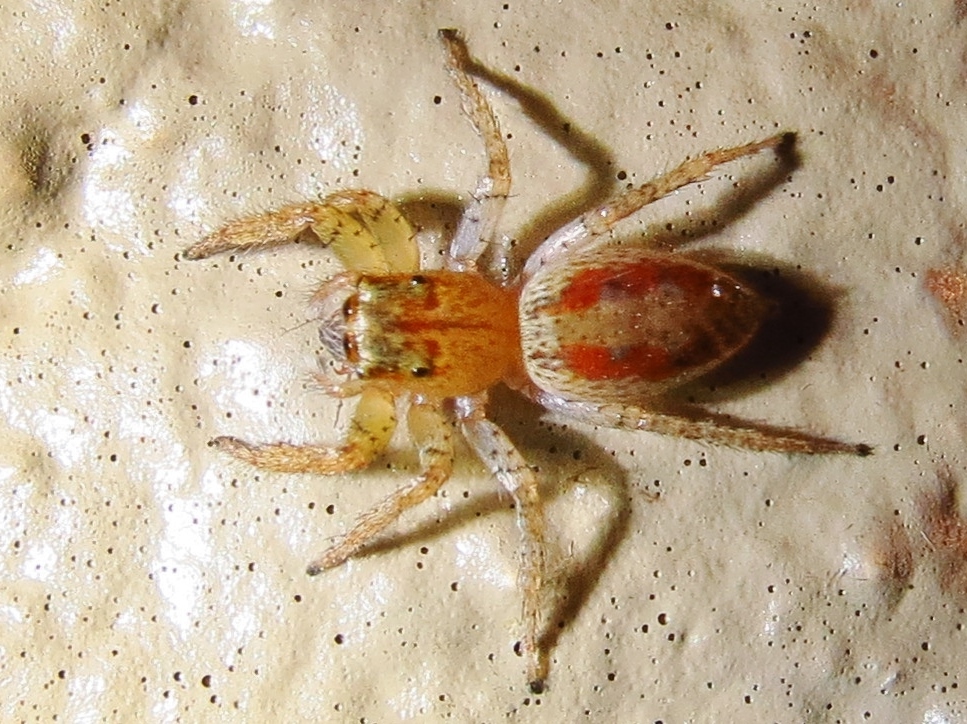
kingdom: Animalia
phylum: Arthropoda
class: Arachnida
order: Araneae
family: Salticidae
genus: Maevia
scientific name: Maevia inclemens
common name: Dimorphic jumper
